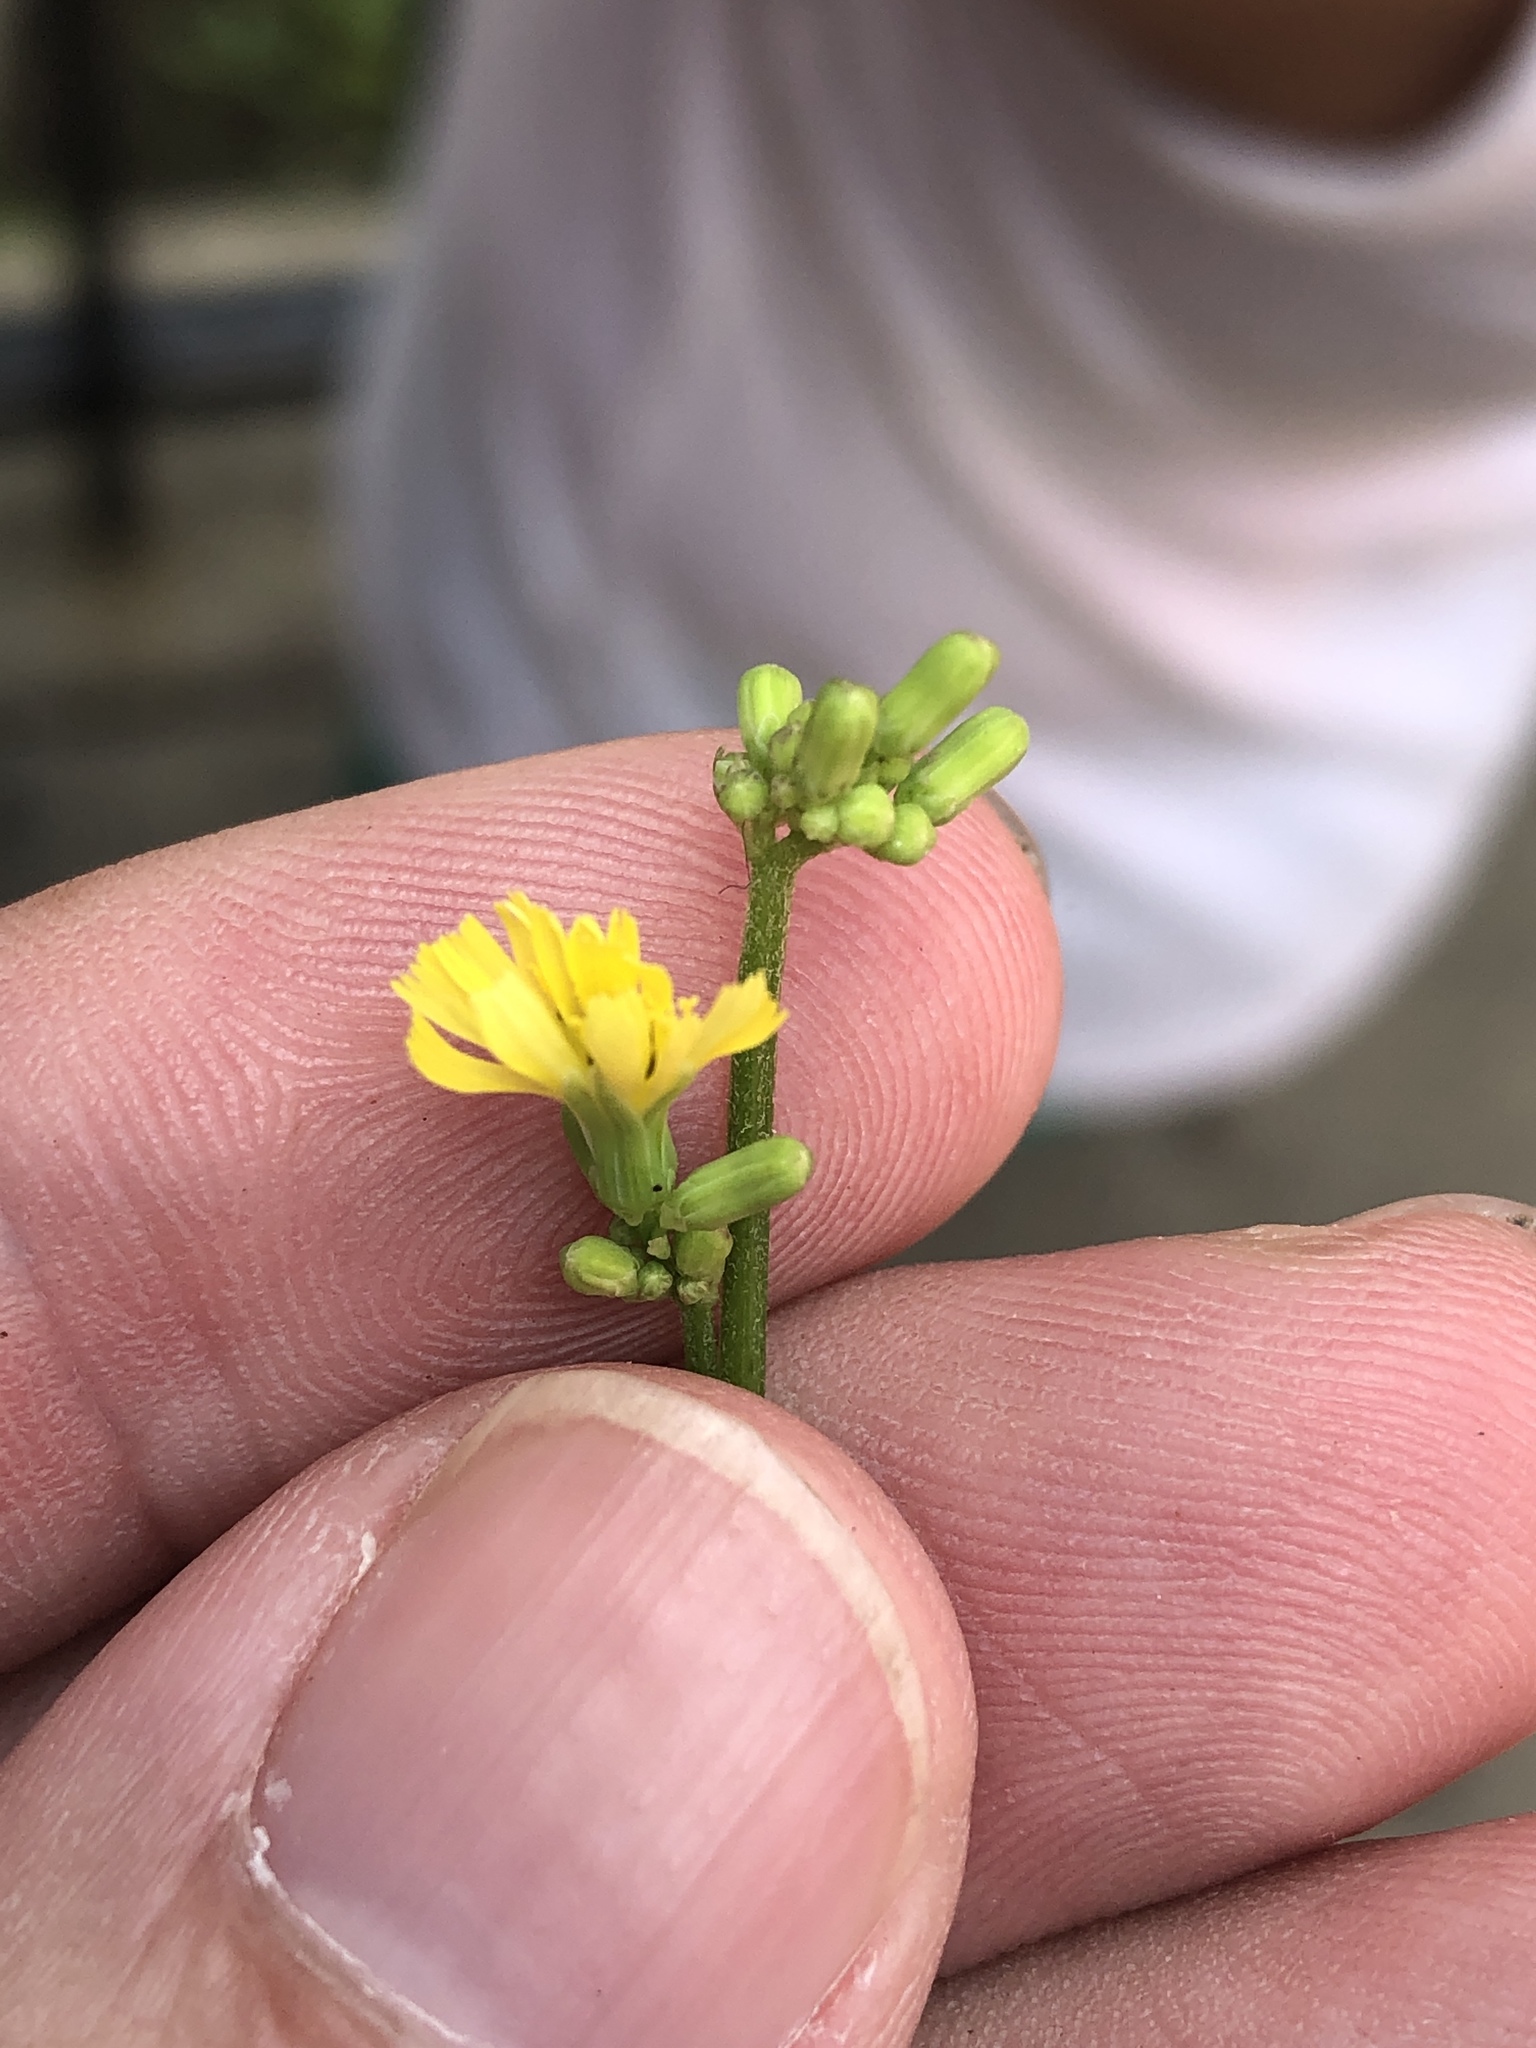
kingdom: Plantae
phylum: Tracheophyta
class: Magnoliopsida
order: Asterales
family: Asteraceae
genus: Youngia
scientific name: Youngia japonica
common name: Oriental false hawksbeard
